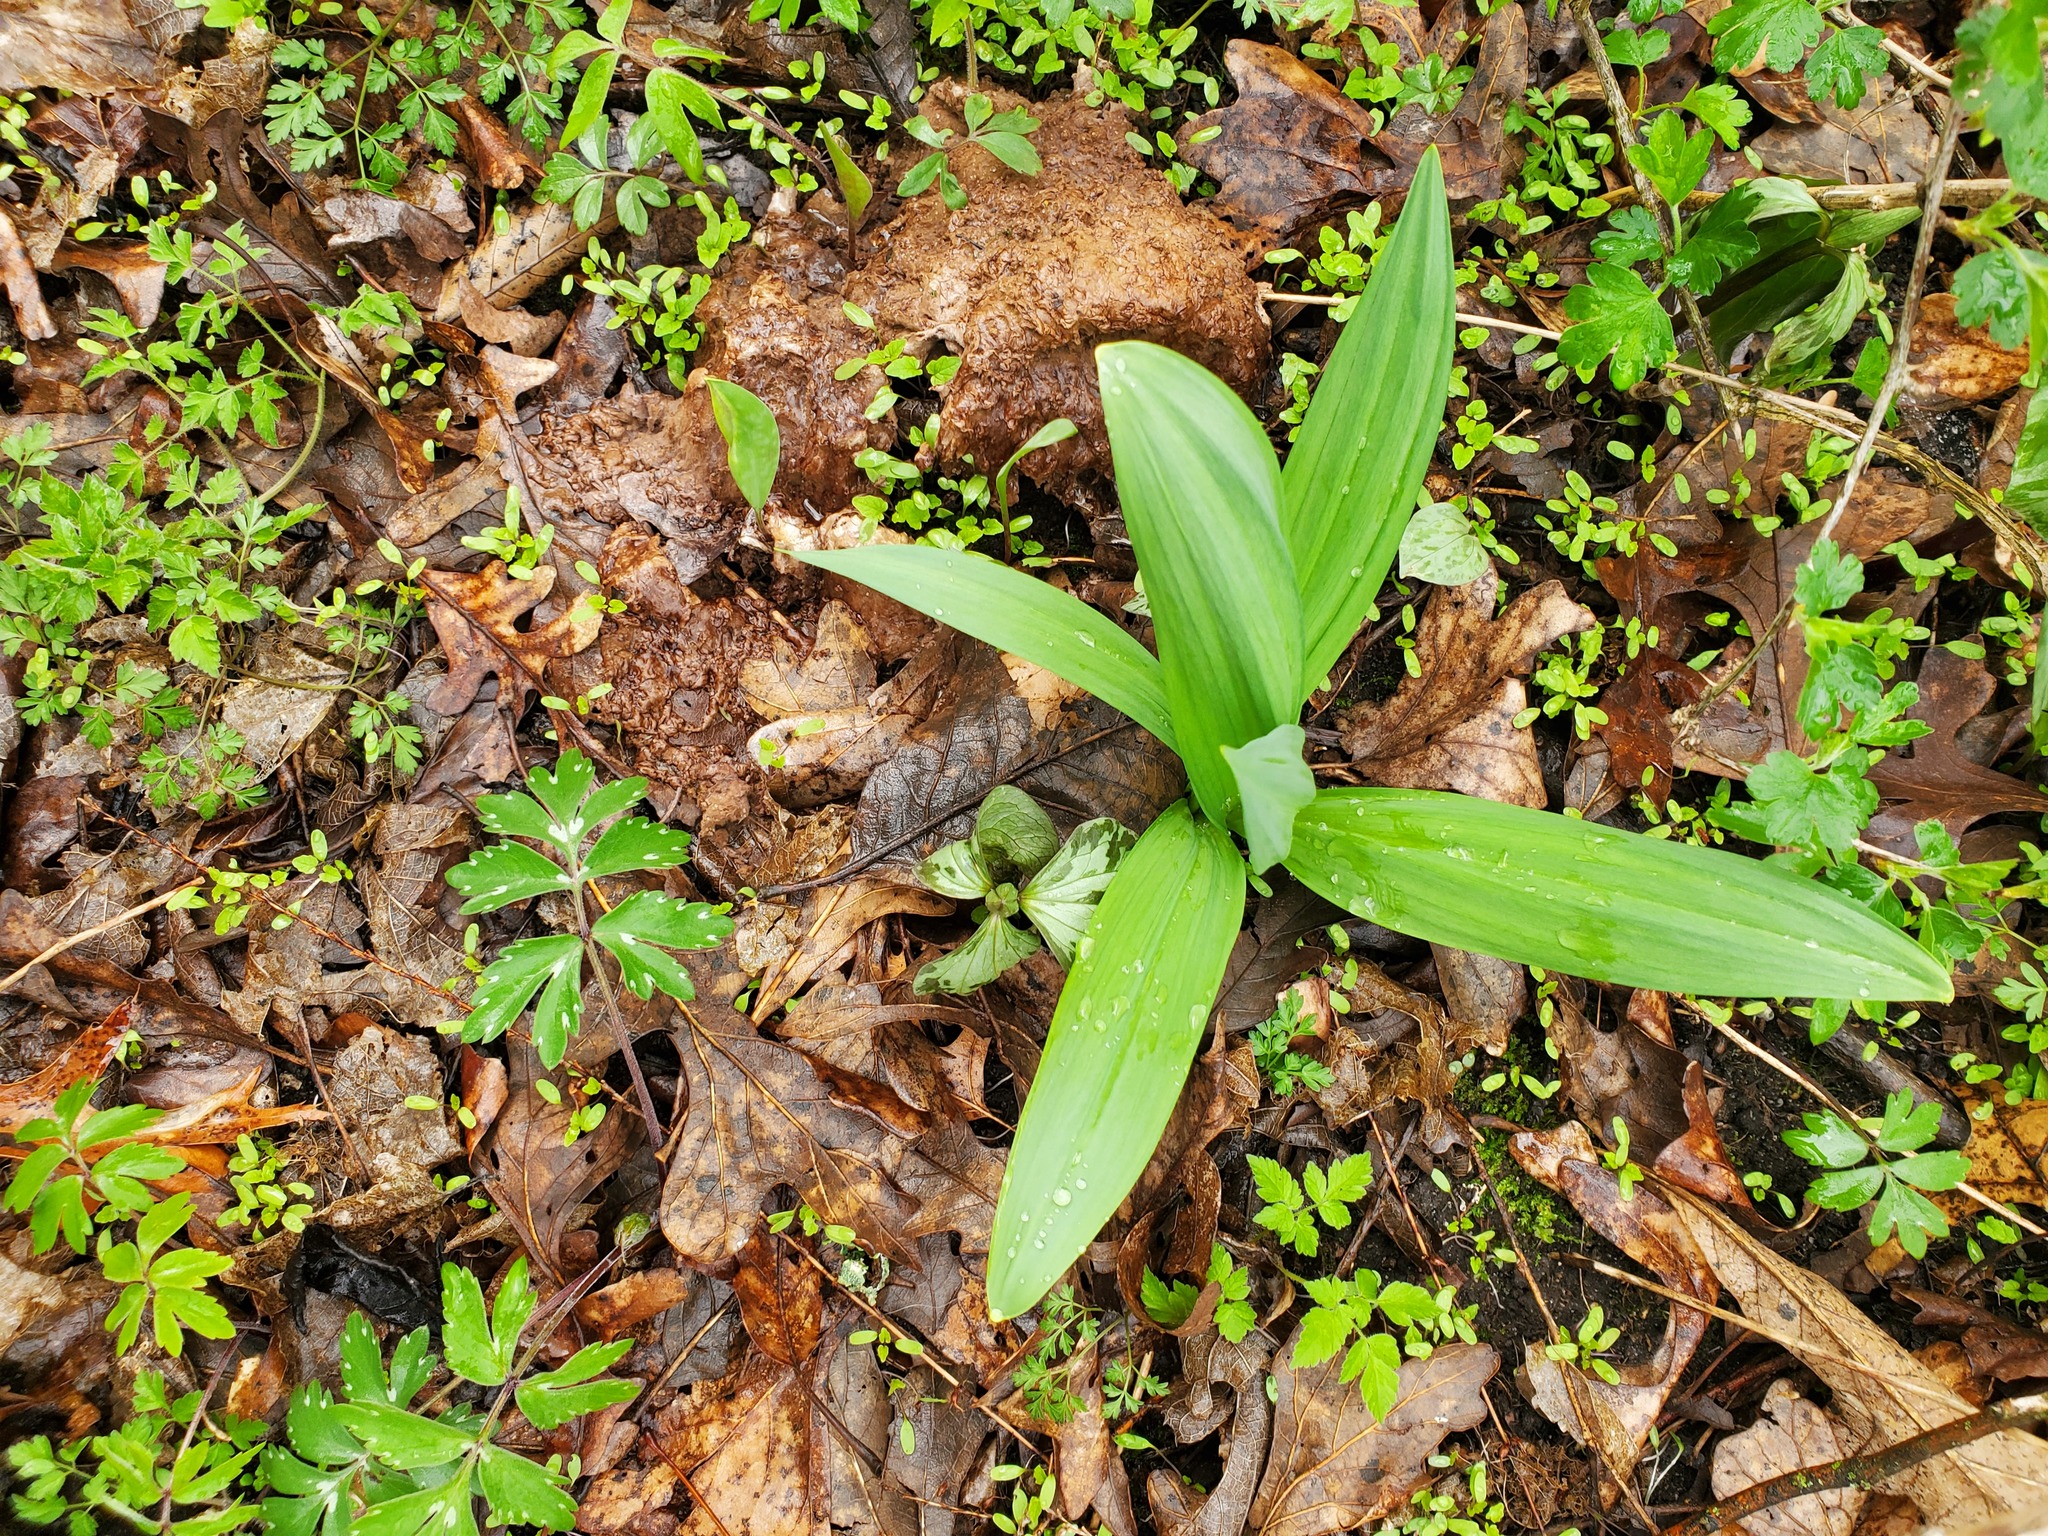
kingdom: Plantae
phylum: Tracheophyta
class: Liliopsida
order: Asparagales
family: Amaryllidaceae
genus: Allium
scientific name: Allium tricoccum
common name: Ramp
